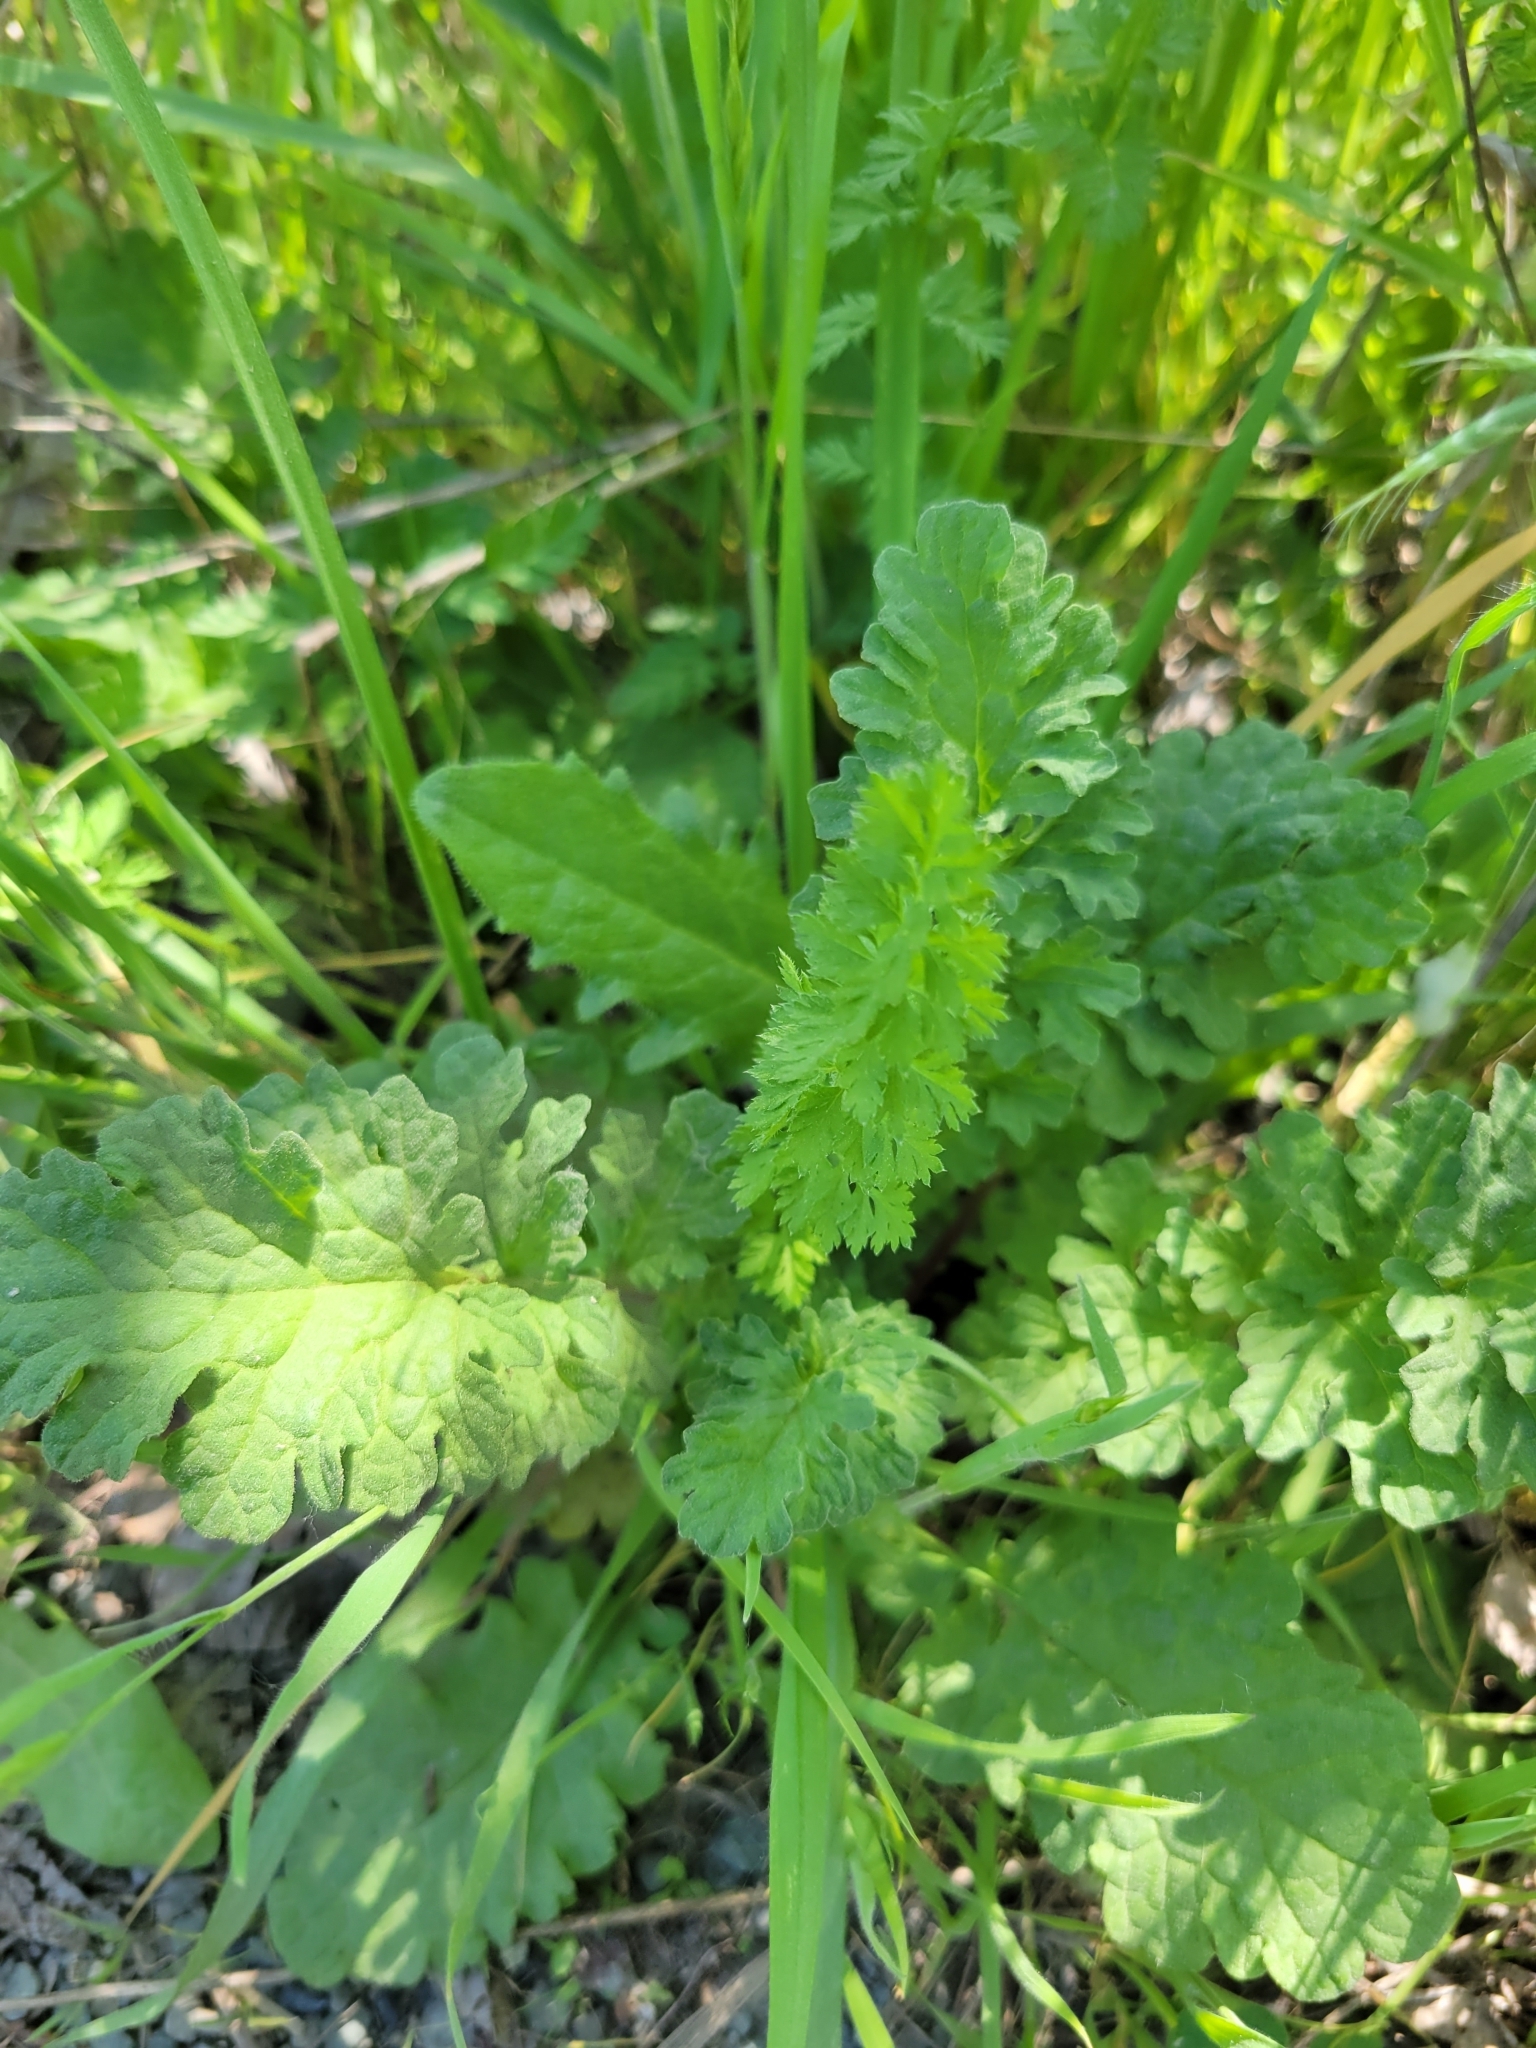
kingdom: Plantae
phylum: Tracheophyta
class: Magnoliopsida
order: Asterales
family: Asteraceae
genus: Jacobaea
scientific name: Jacobaea vulgaris
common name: Stinking willie
